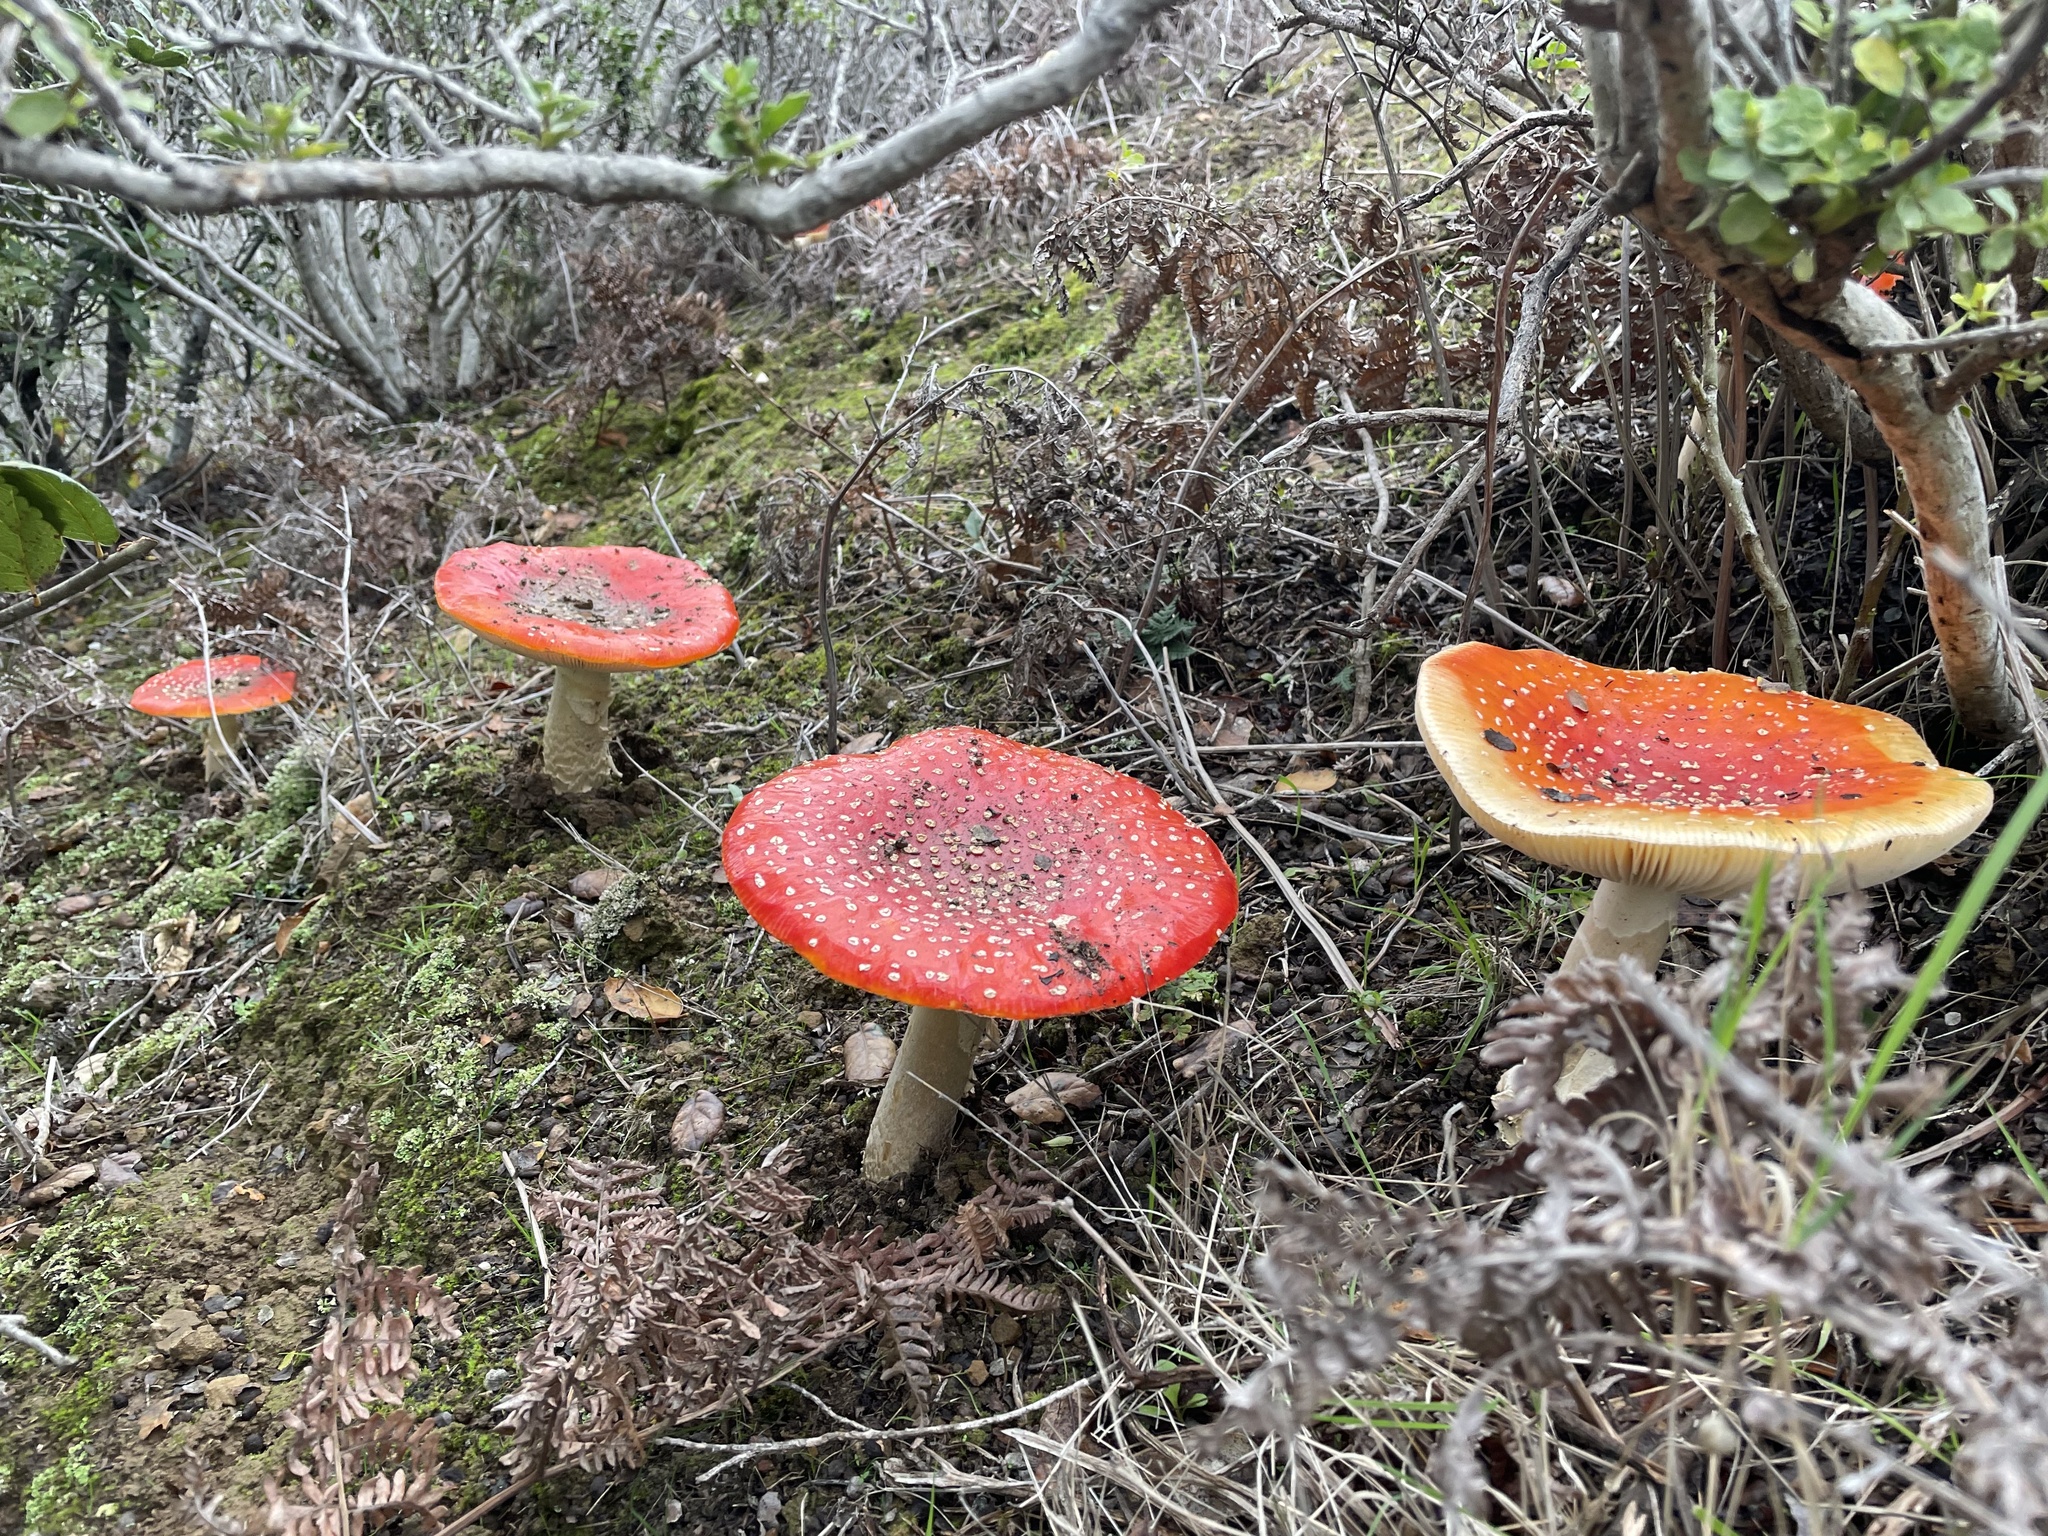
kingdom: Fungi
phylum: Basidiomycota
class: Agaricomycetes
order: Agaricales
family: Amanitaceae
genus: Amanita
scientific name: Amanita muscaria
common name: Fly agaric
